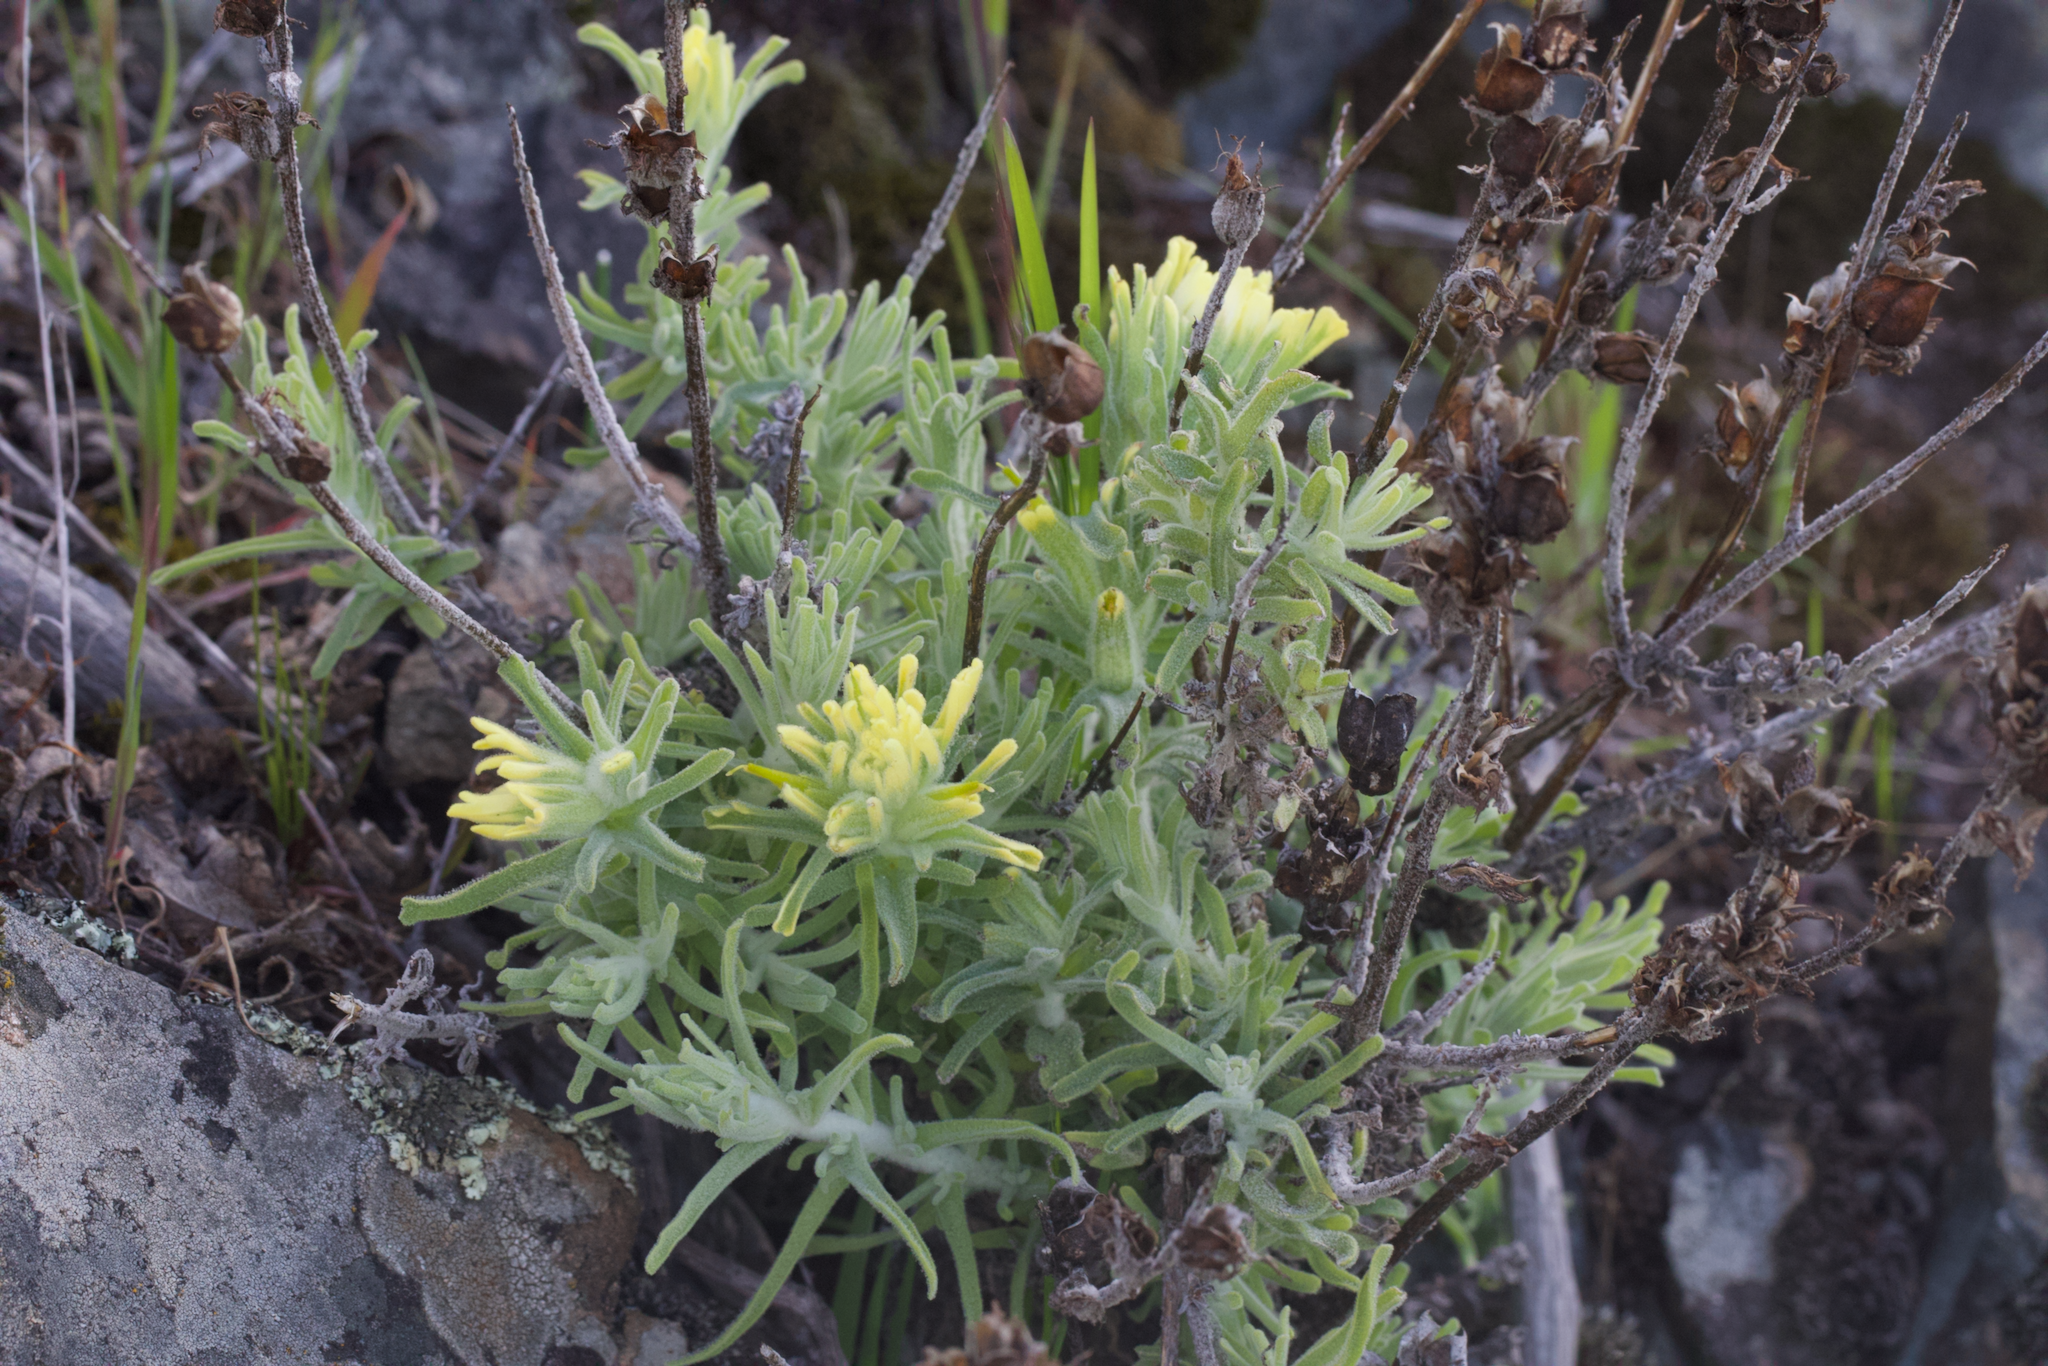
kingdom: Plantae
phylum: Tracheophyta
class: Magnoliopsida
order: Lamiales
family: Orobanchaceae
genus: Castilleja
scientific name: Castilleja foliolosa
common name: Woolly indian paintbrush
